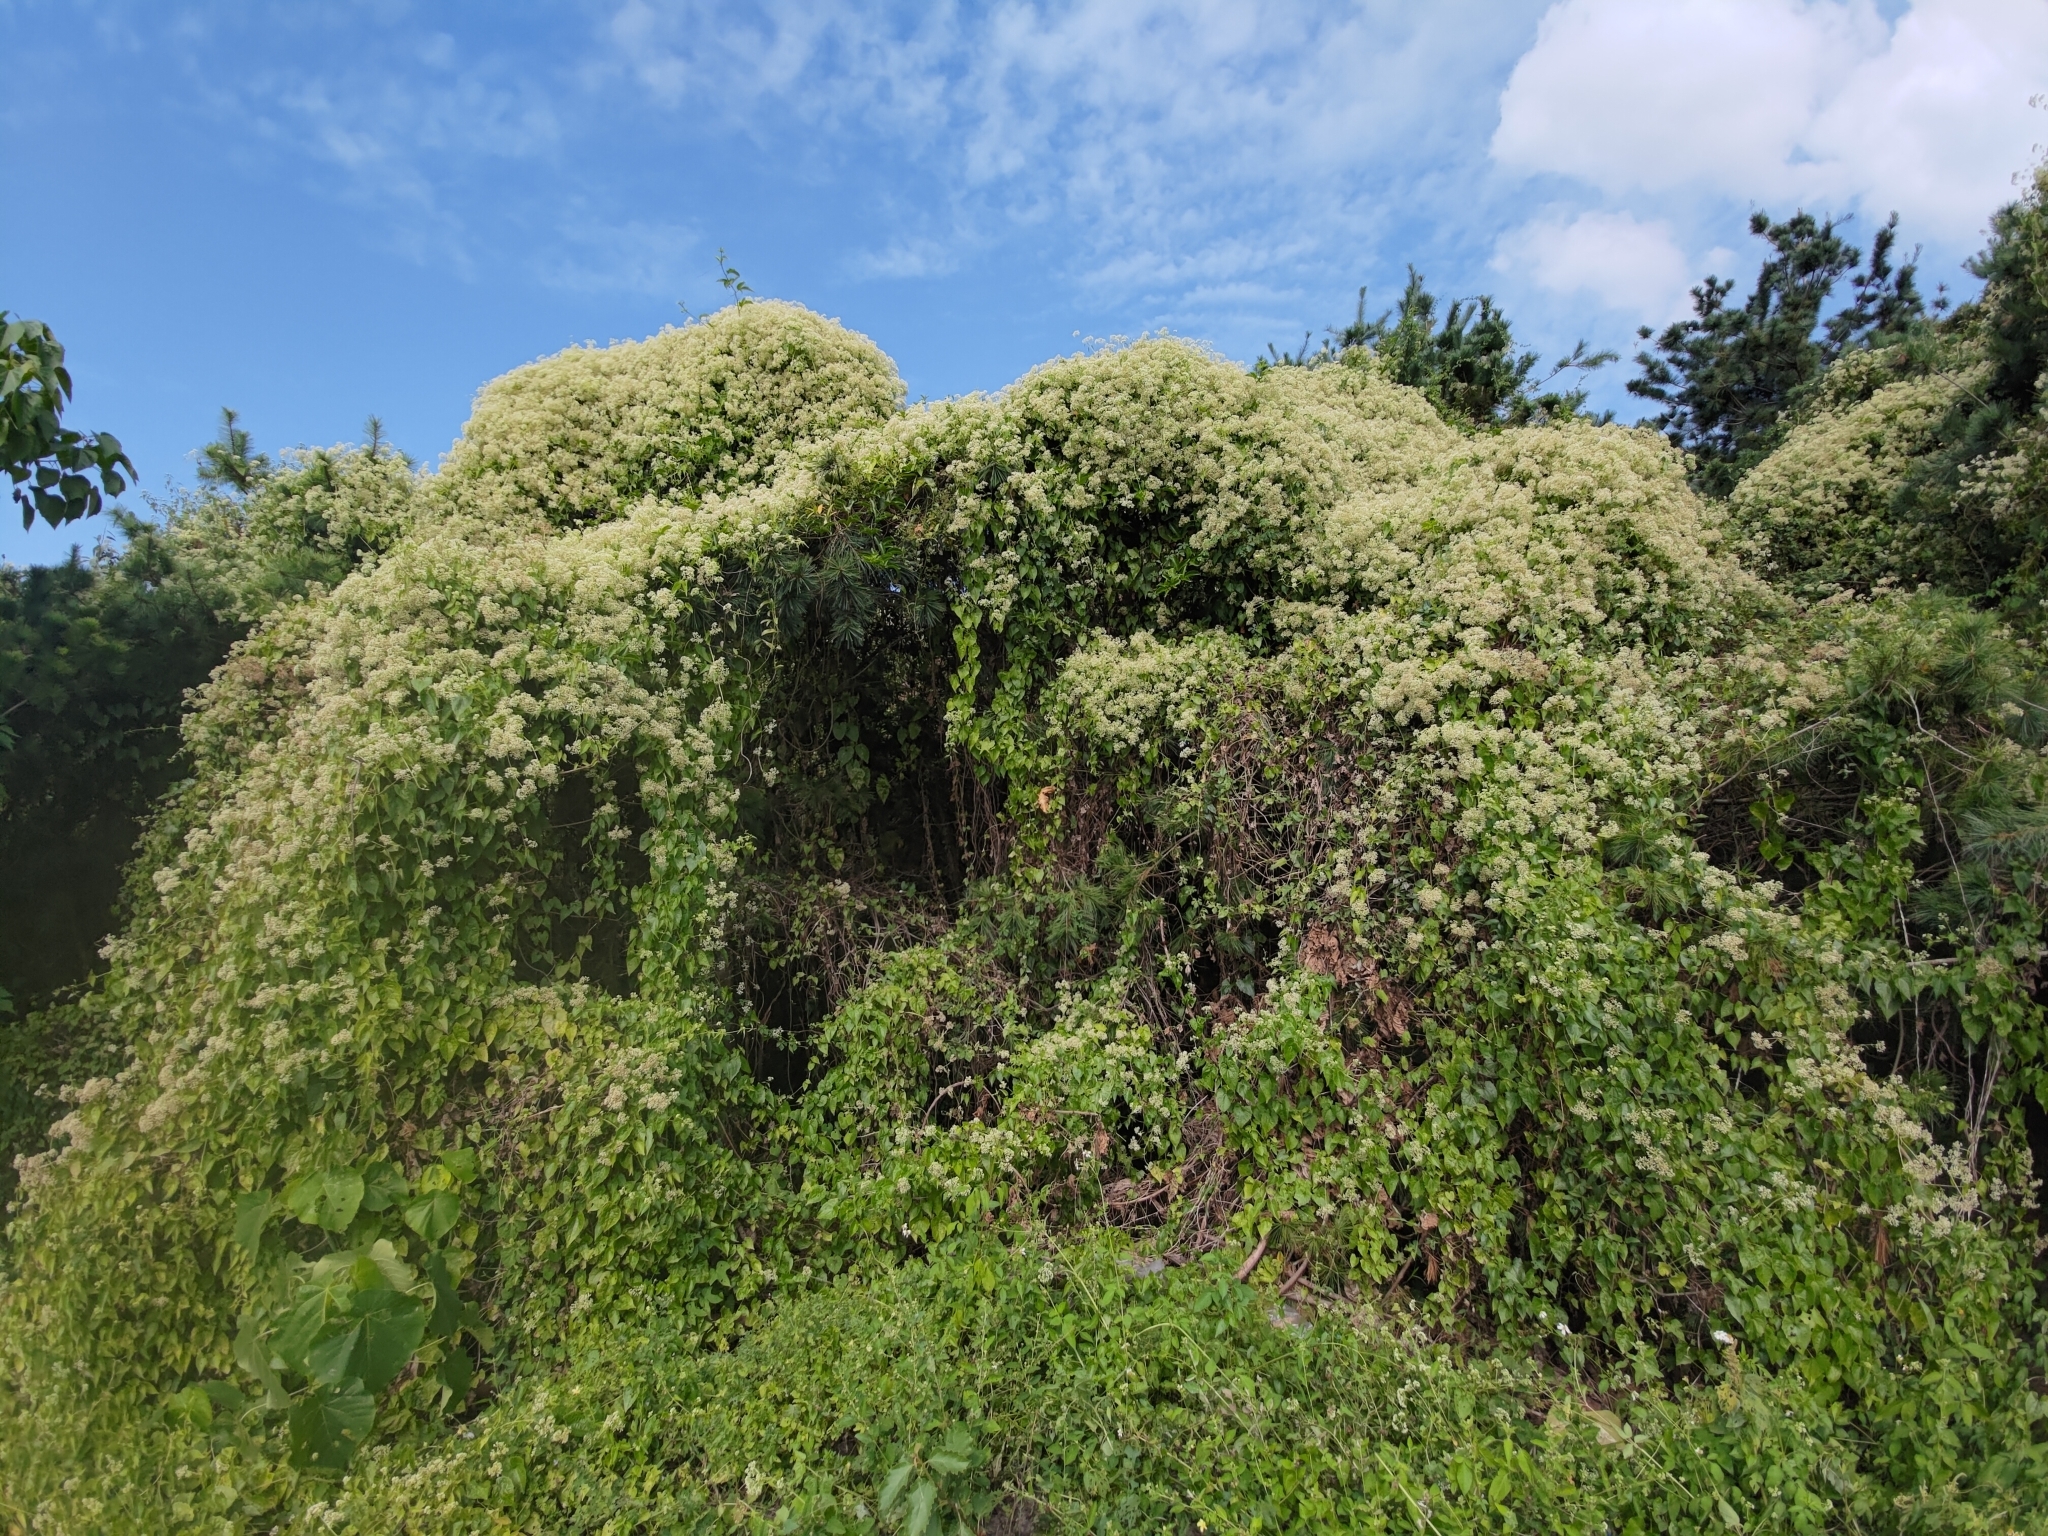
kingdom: Plantae
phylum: Tracheophyta
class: Magnoliopsida
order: Asterales
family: Asteraceae
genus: Mikania
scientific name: Mikania micrantha
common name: Mile-a-minute
